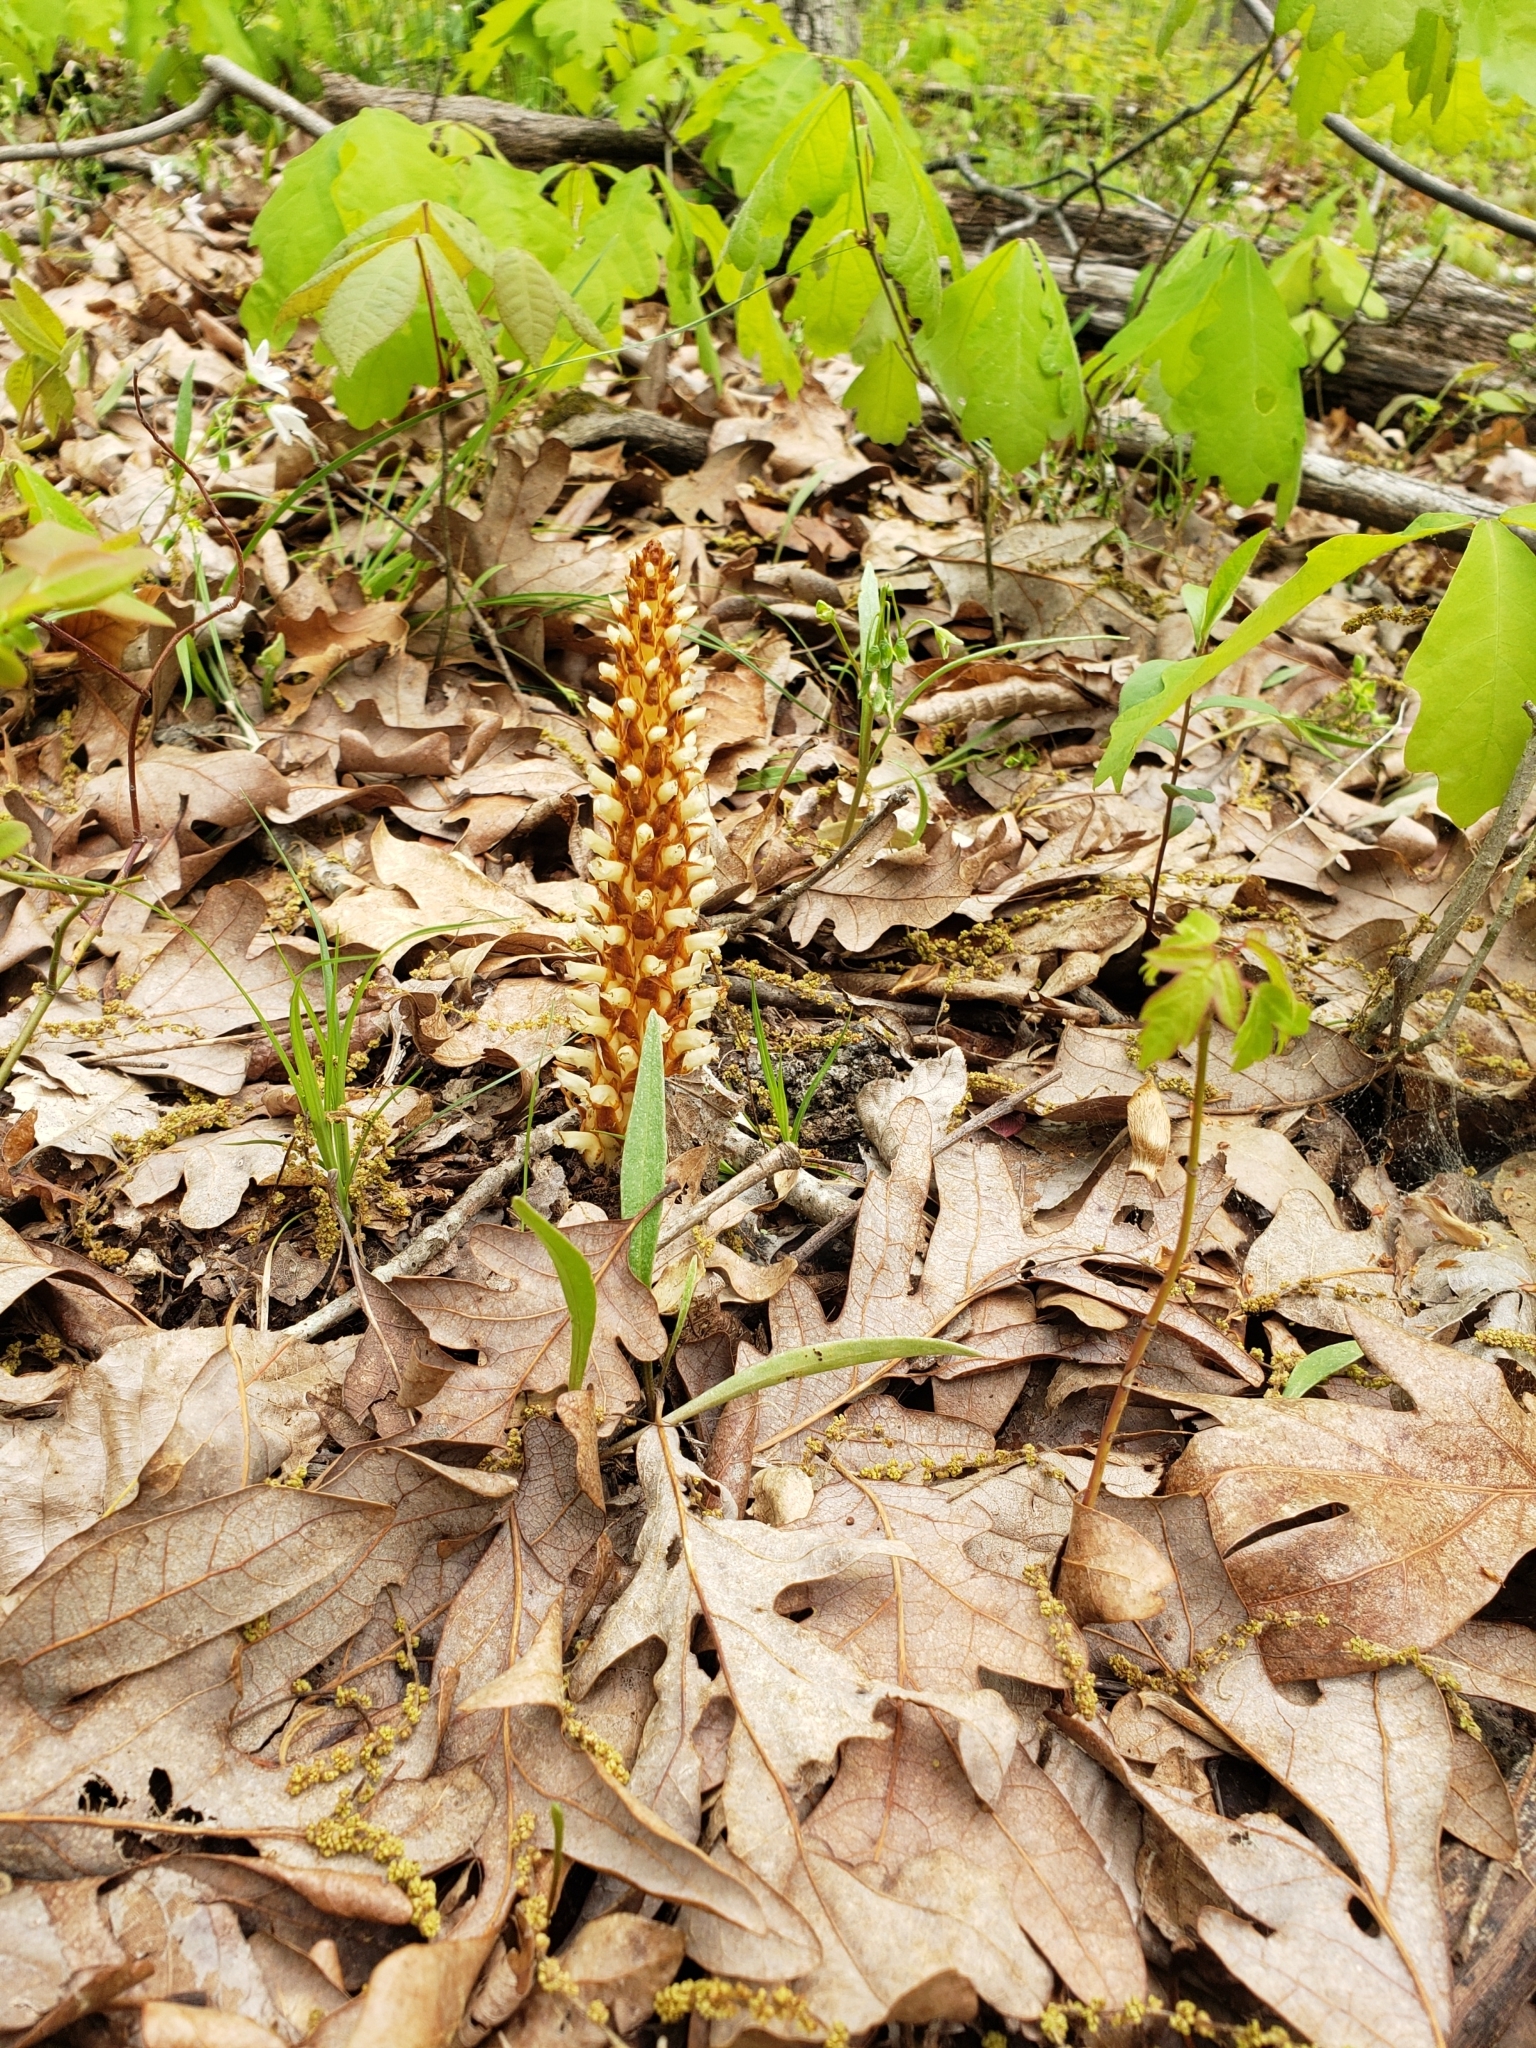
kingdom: Plantae
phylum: Tracheophyta
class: Magnoliopsida
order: Lamiales
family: Orobanchaceae
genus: Conopholis
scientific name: Conopholis americana
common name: American cancer-root
